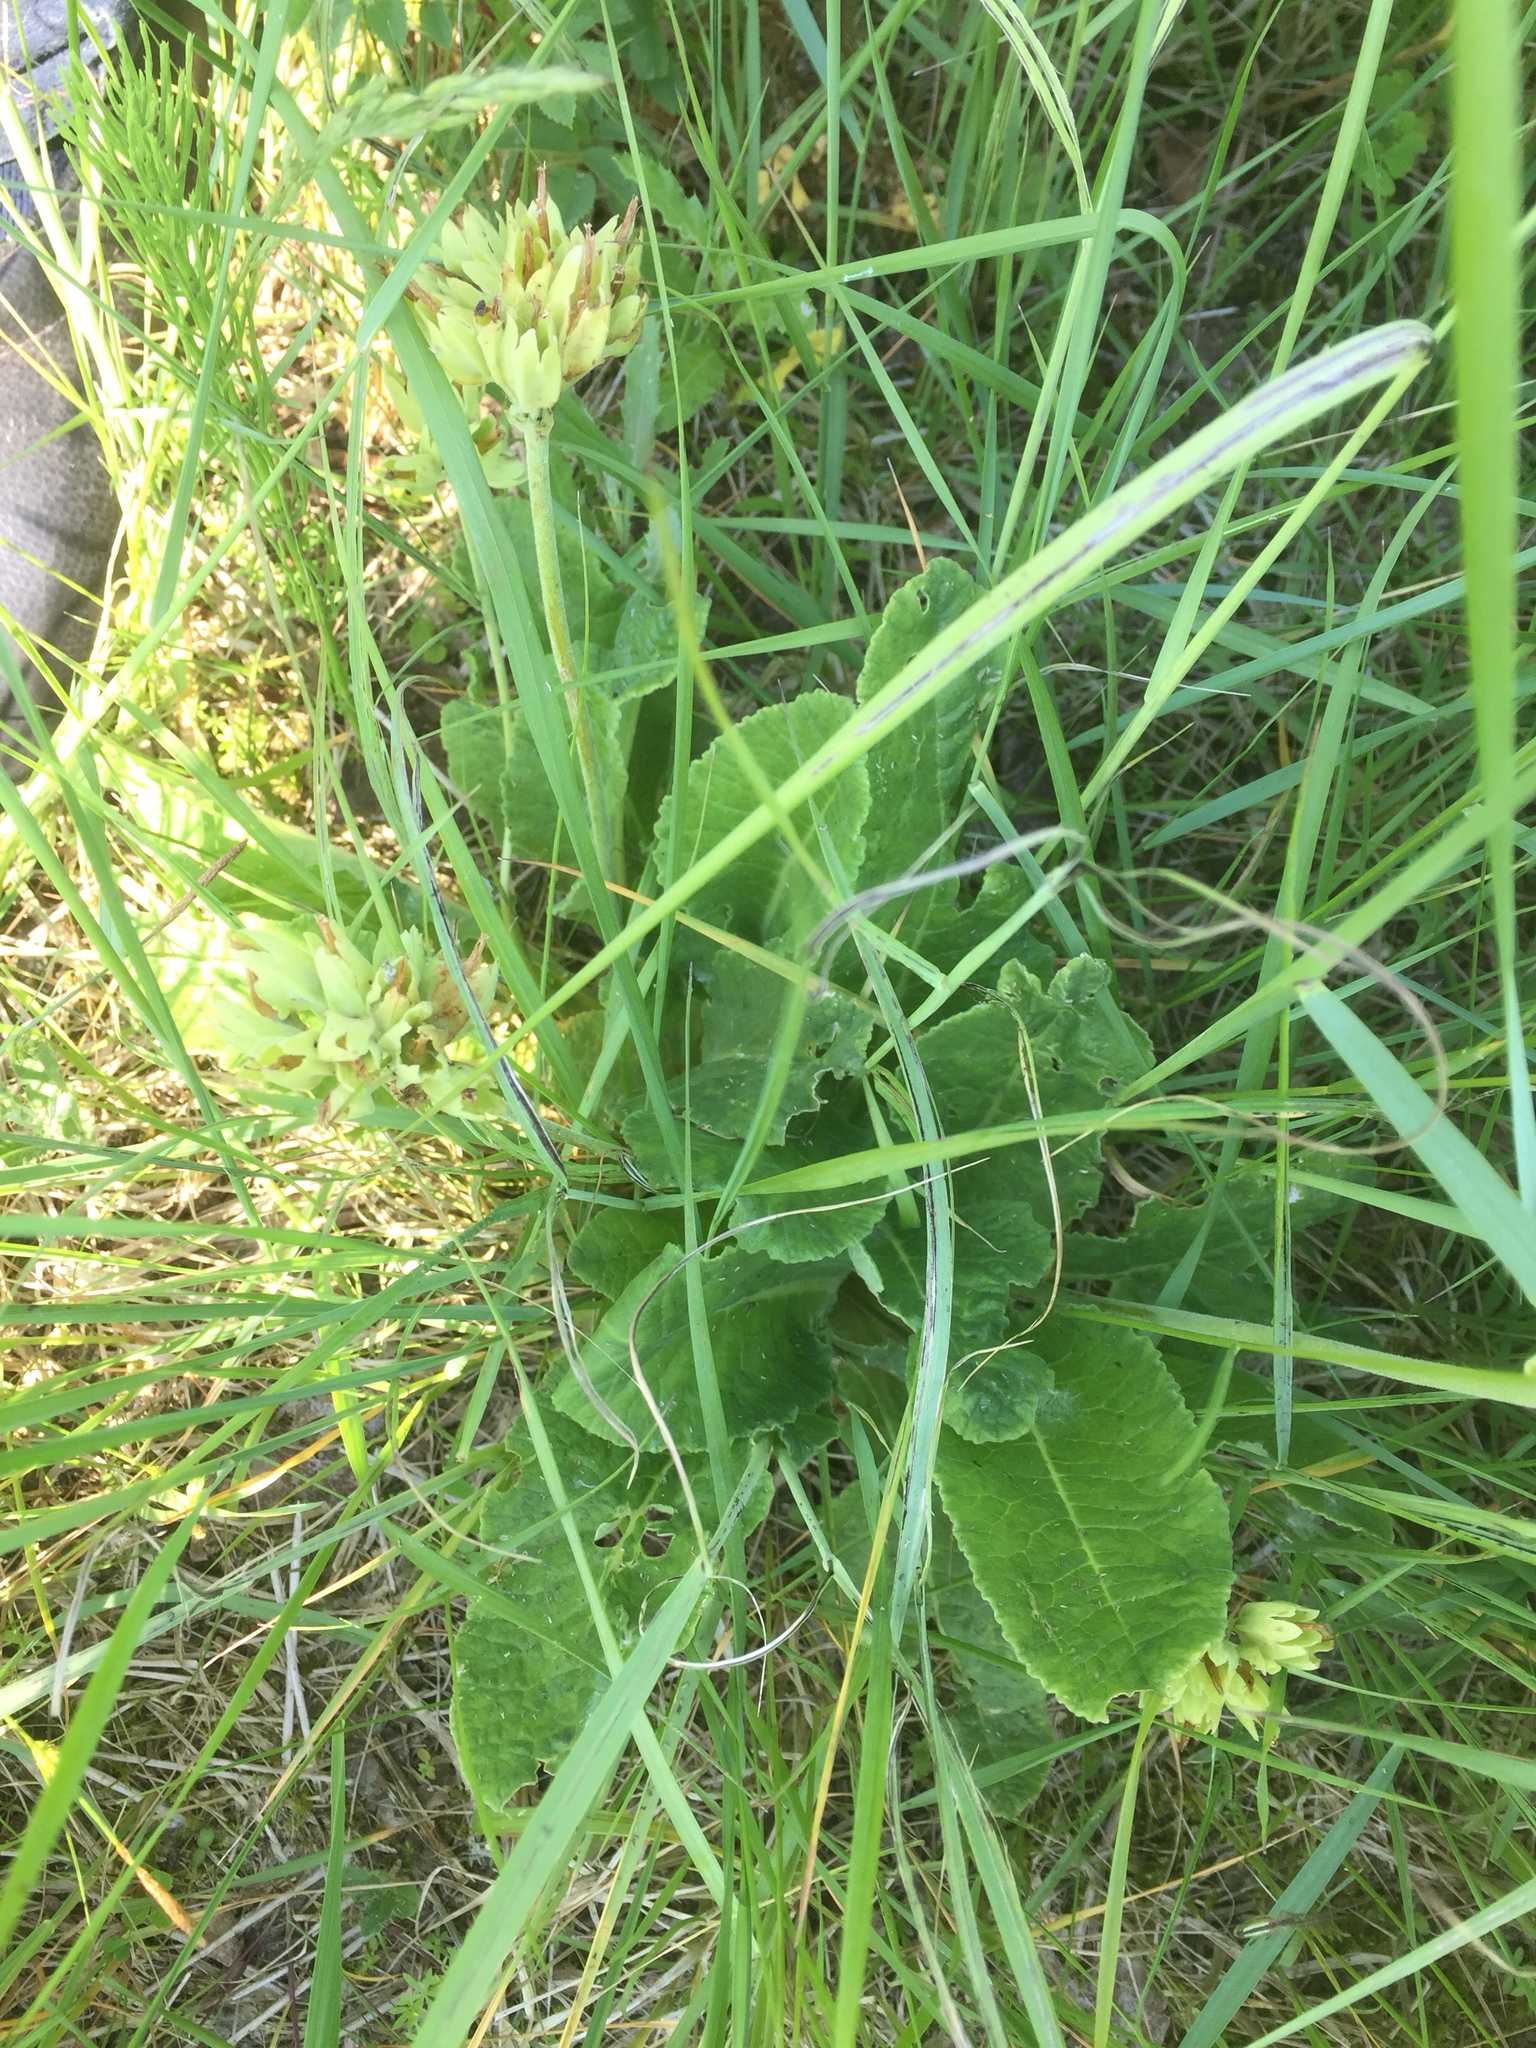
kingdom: Plantae
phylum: Tracheophyta
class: Magnoliopsida
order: Ericales
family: Primulaceae
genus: Primula
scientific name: Primula veris
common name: Cowslip
